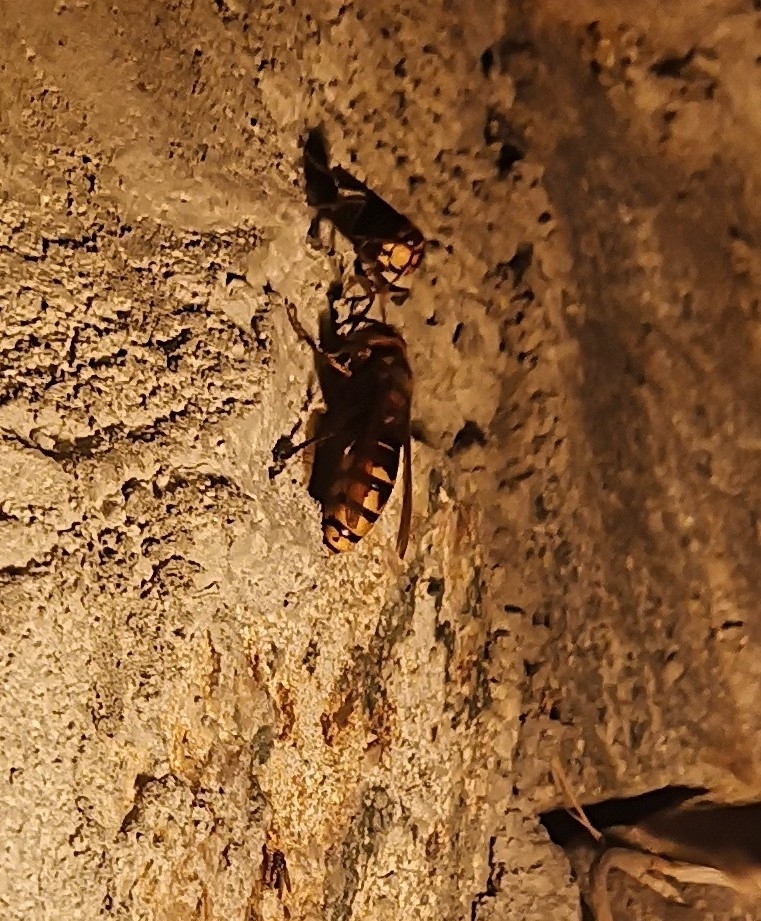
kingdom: Animalia
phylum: Arthropoda
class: Insecta
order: Hymenoptera
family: Vespidae
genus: Vespa
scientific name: Vespa crabro
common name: Hornet
